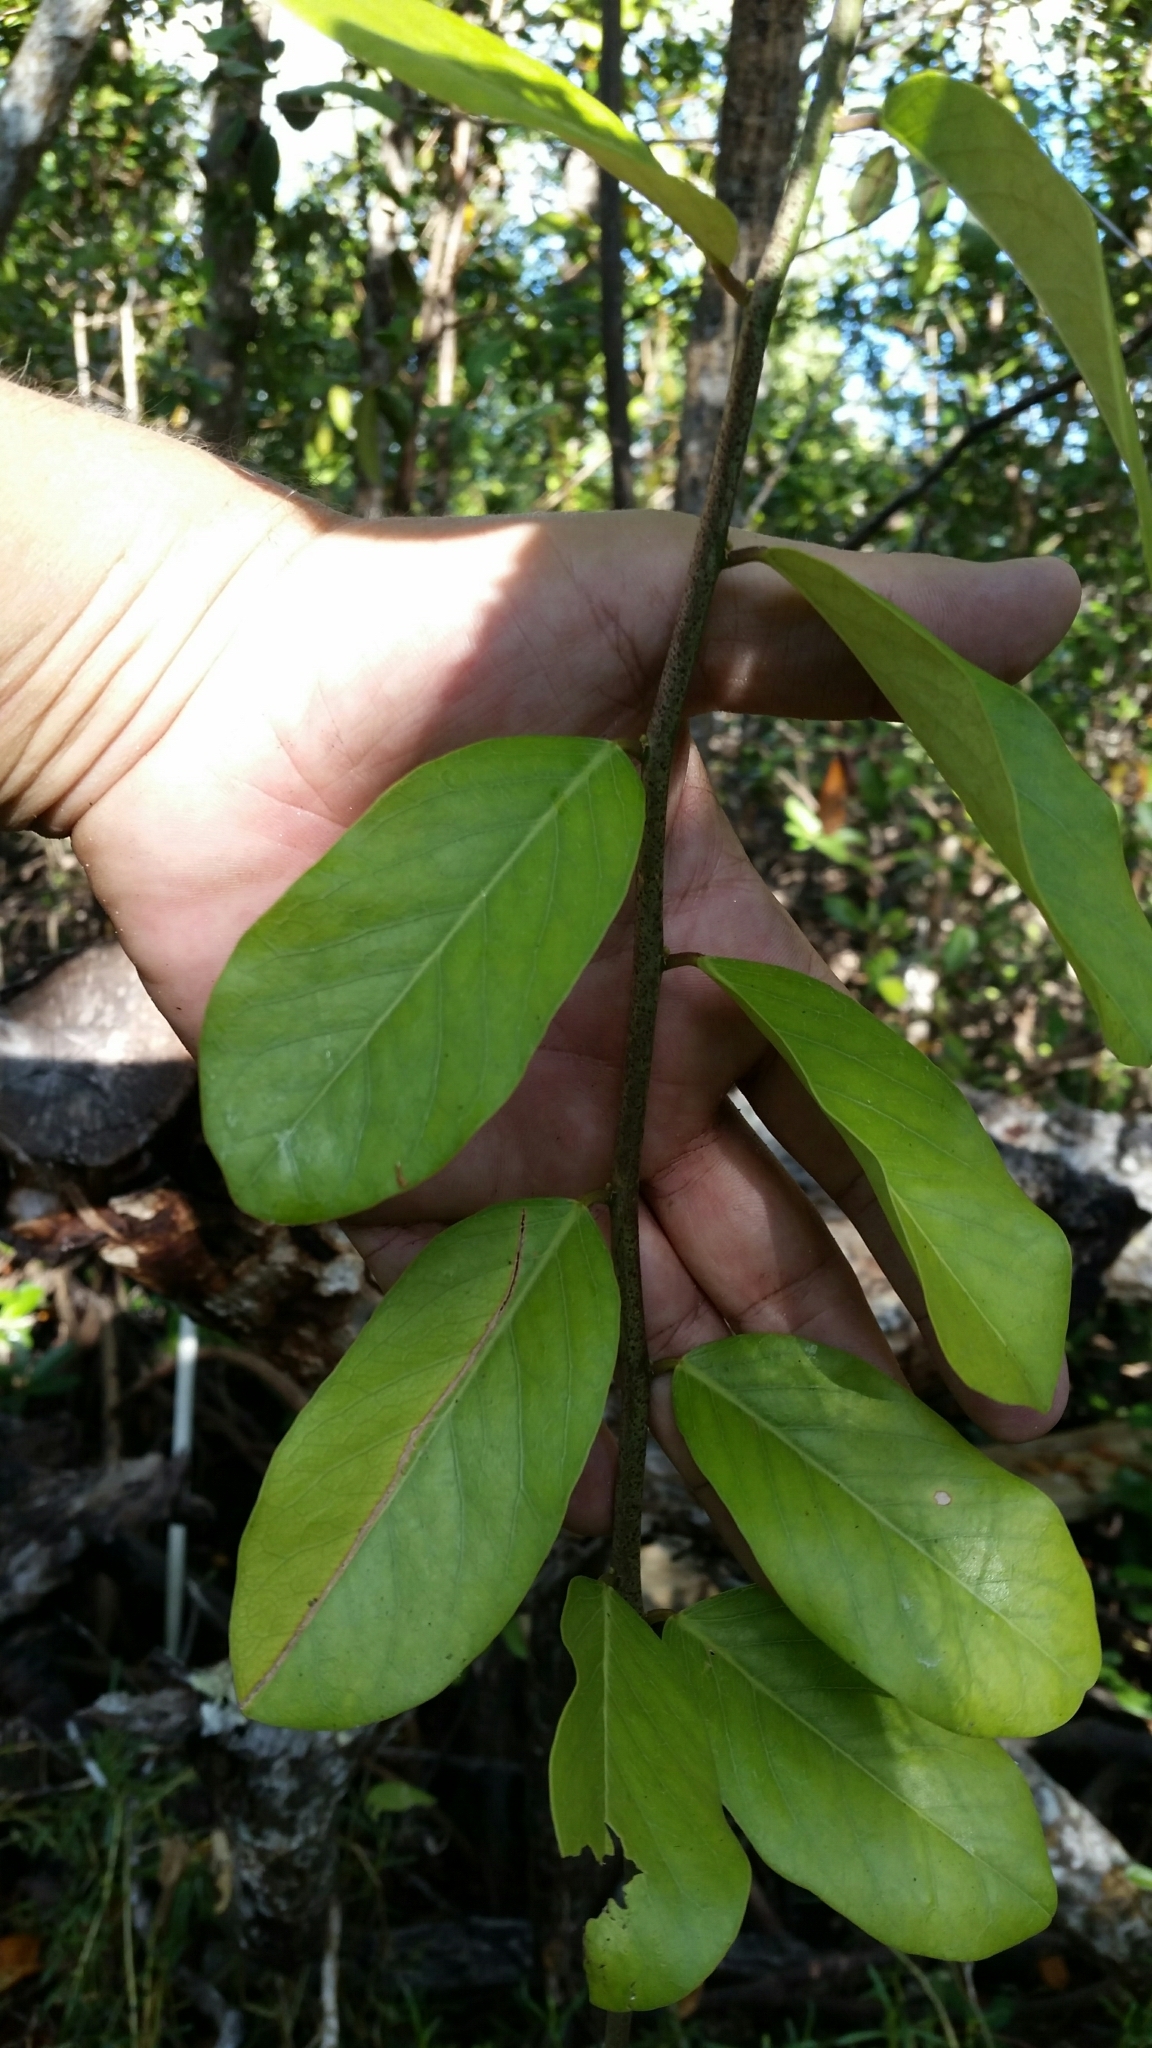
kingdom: Plantae
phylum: Tracheophyta
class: Magnoliopsida
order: Brassicales
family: Capparaceae
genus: Cynophalla
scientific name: Cynophalla flexuosa
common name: Capertree
